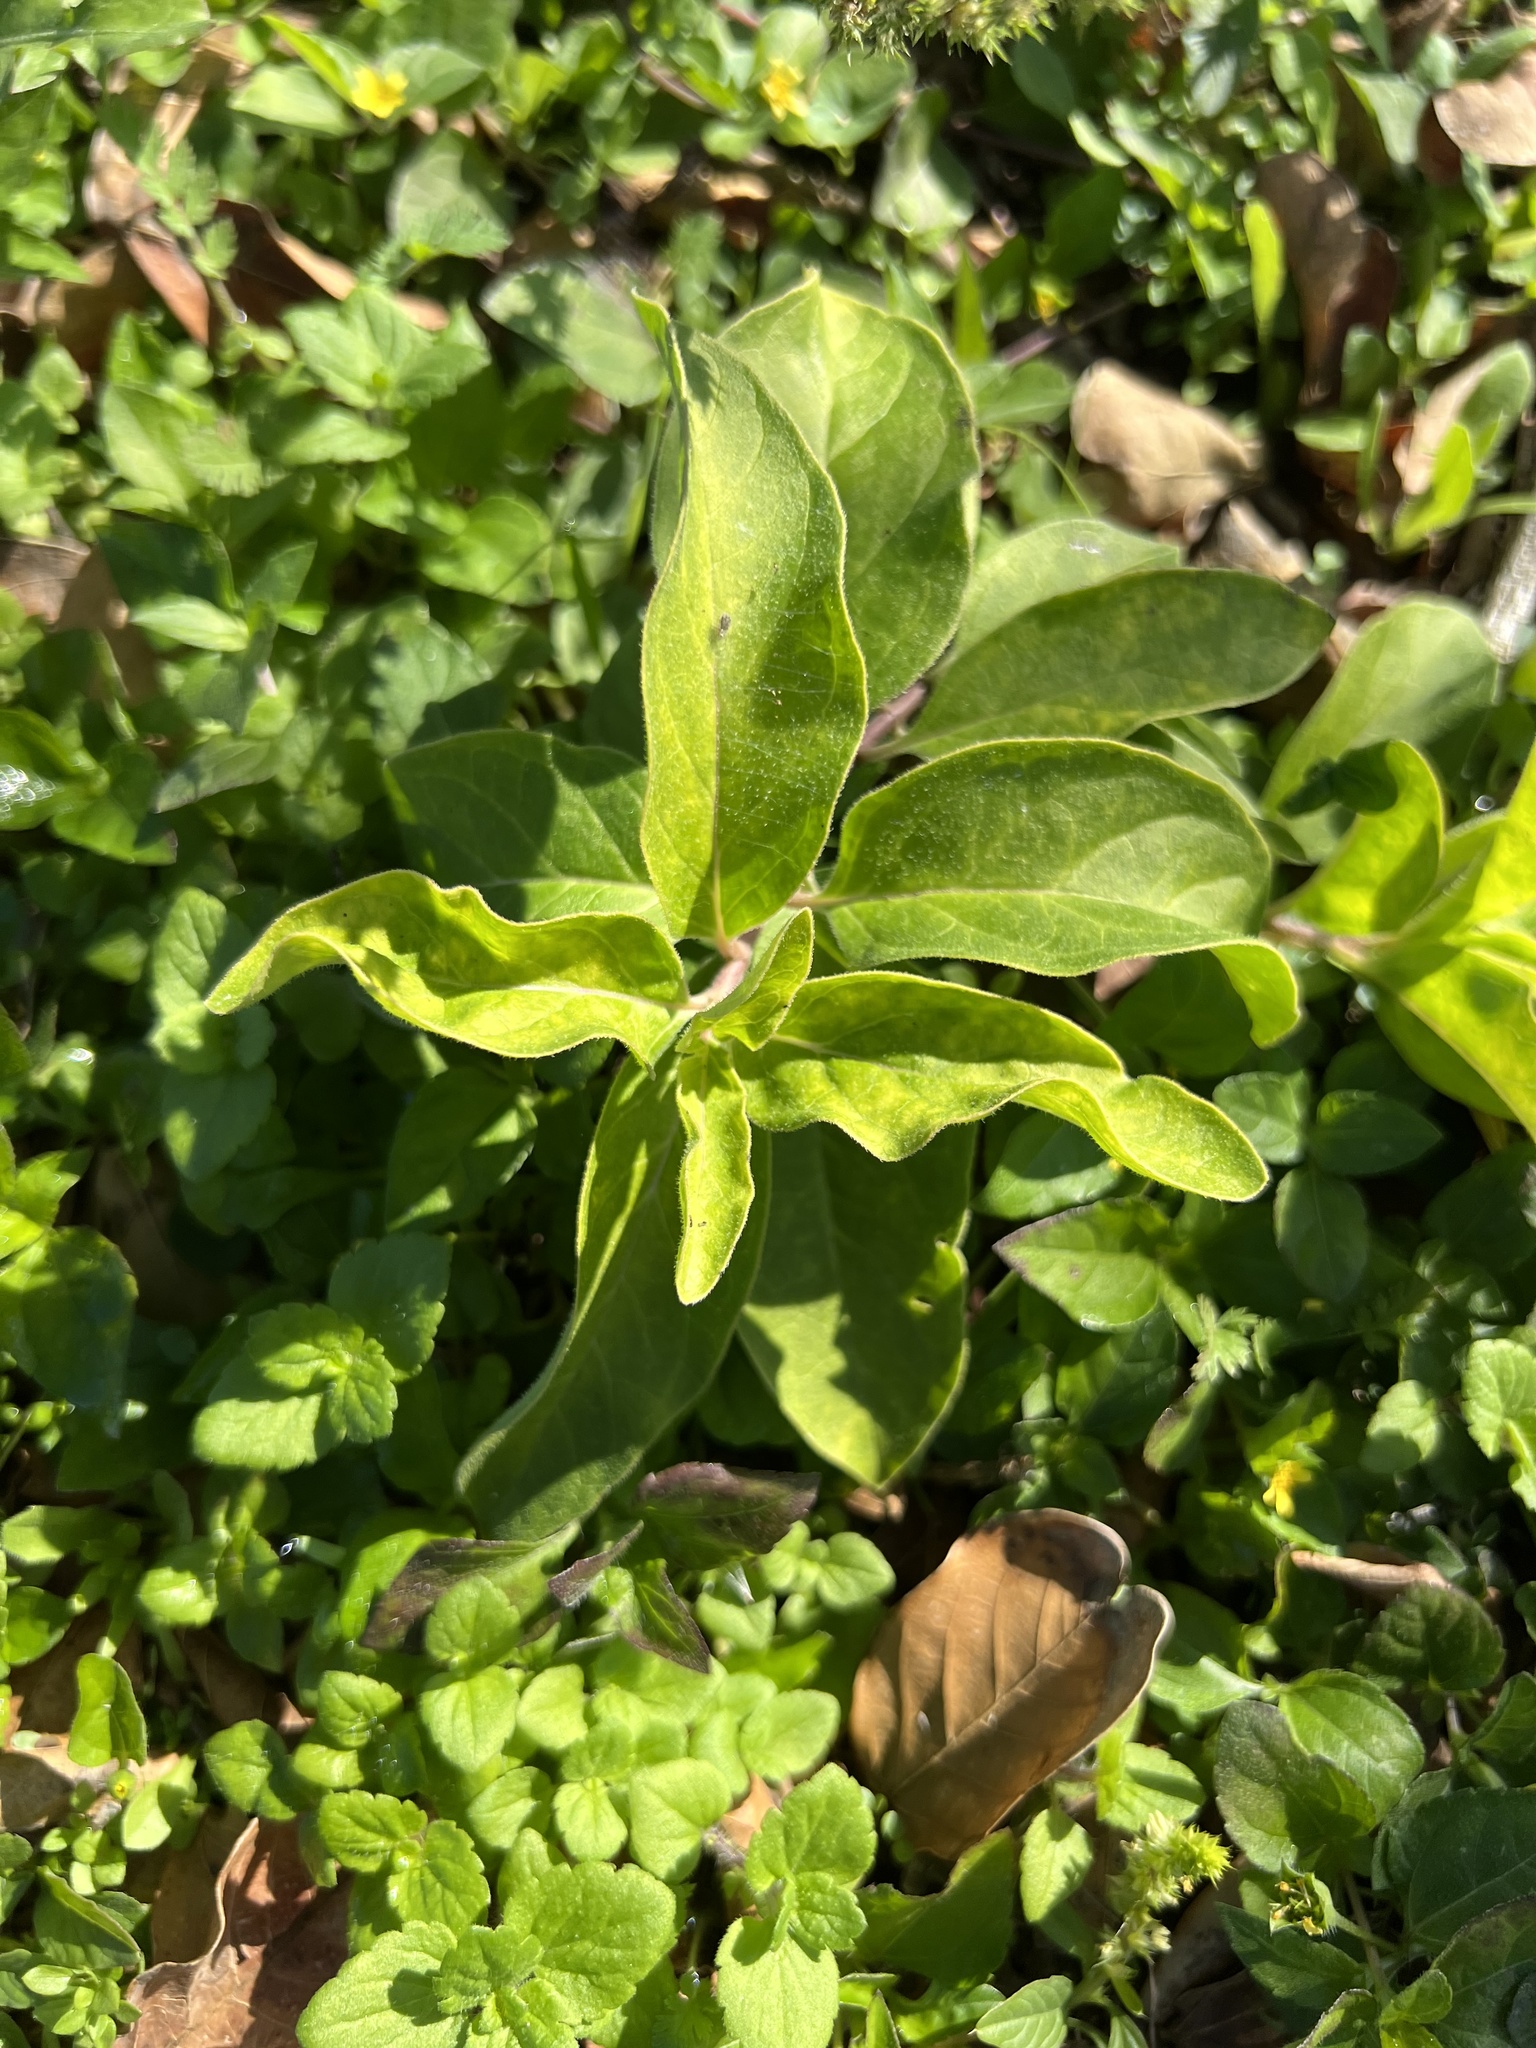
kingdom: Plantae
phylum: Tracheophyta
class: Magnoliopsida
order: Gentianales
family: Apocynaceae
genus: Asclepias
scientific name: Asclepias oenotheroides
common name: Zizotes milkweed
